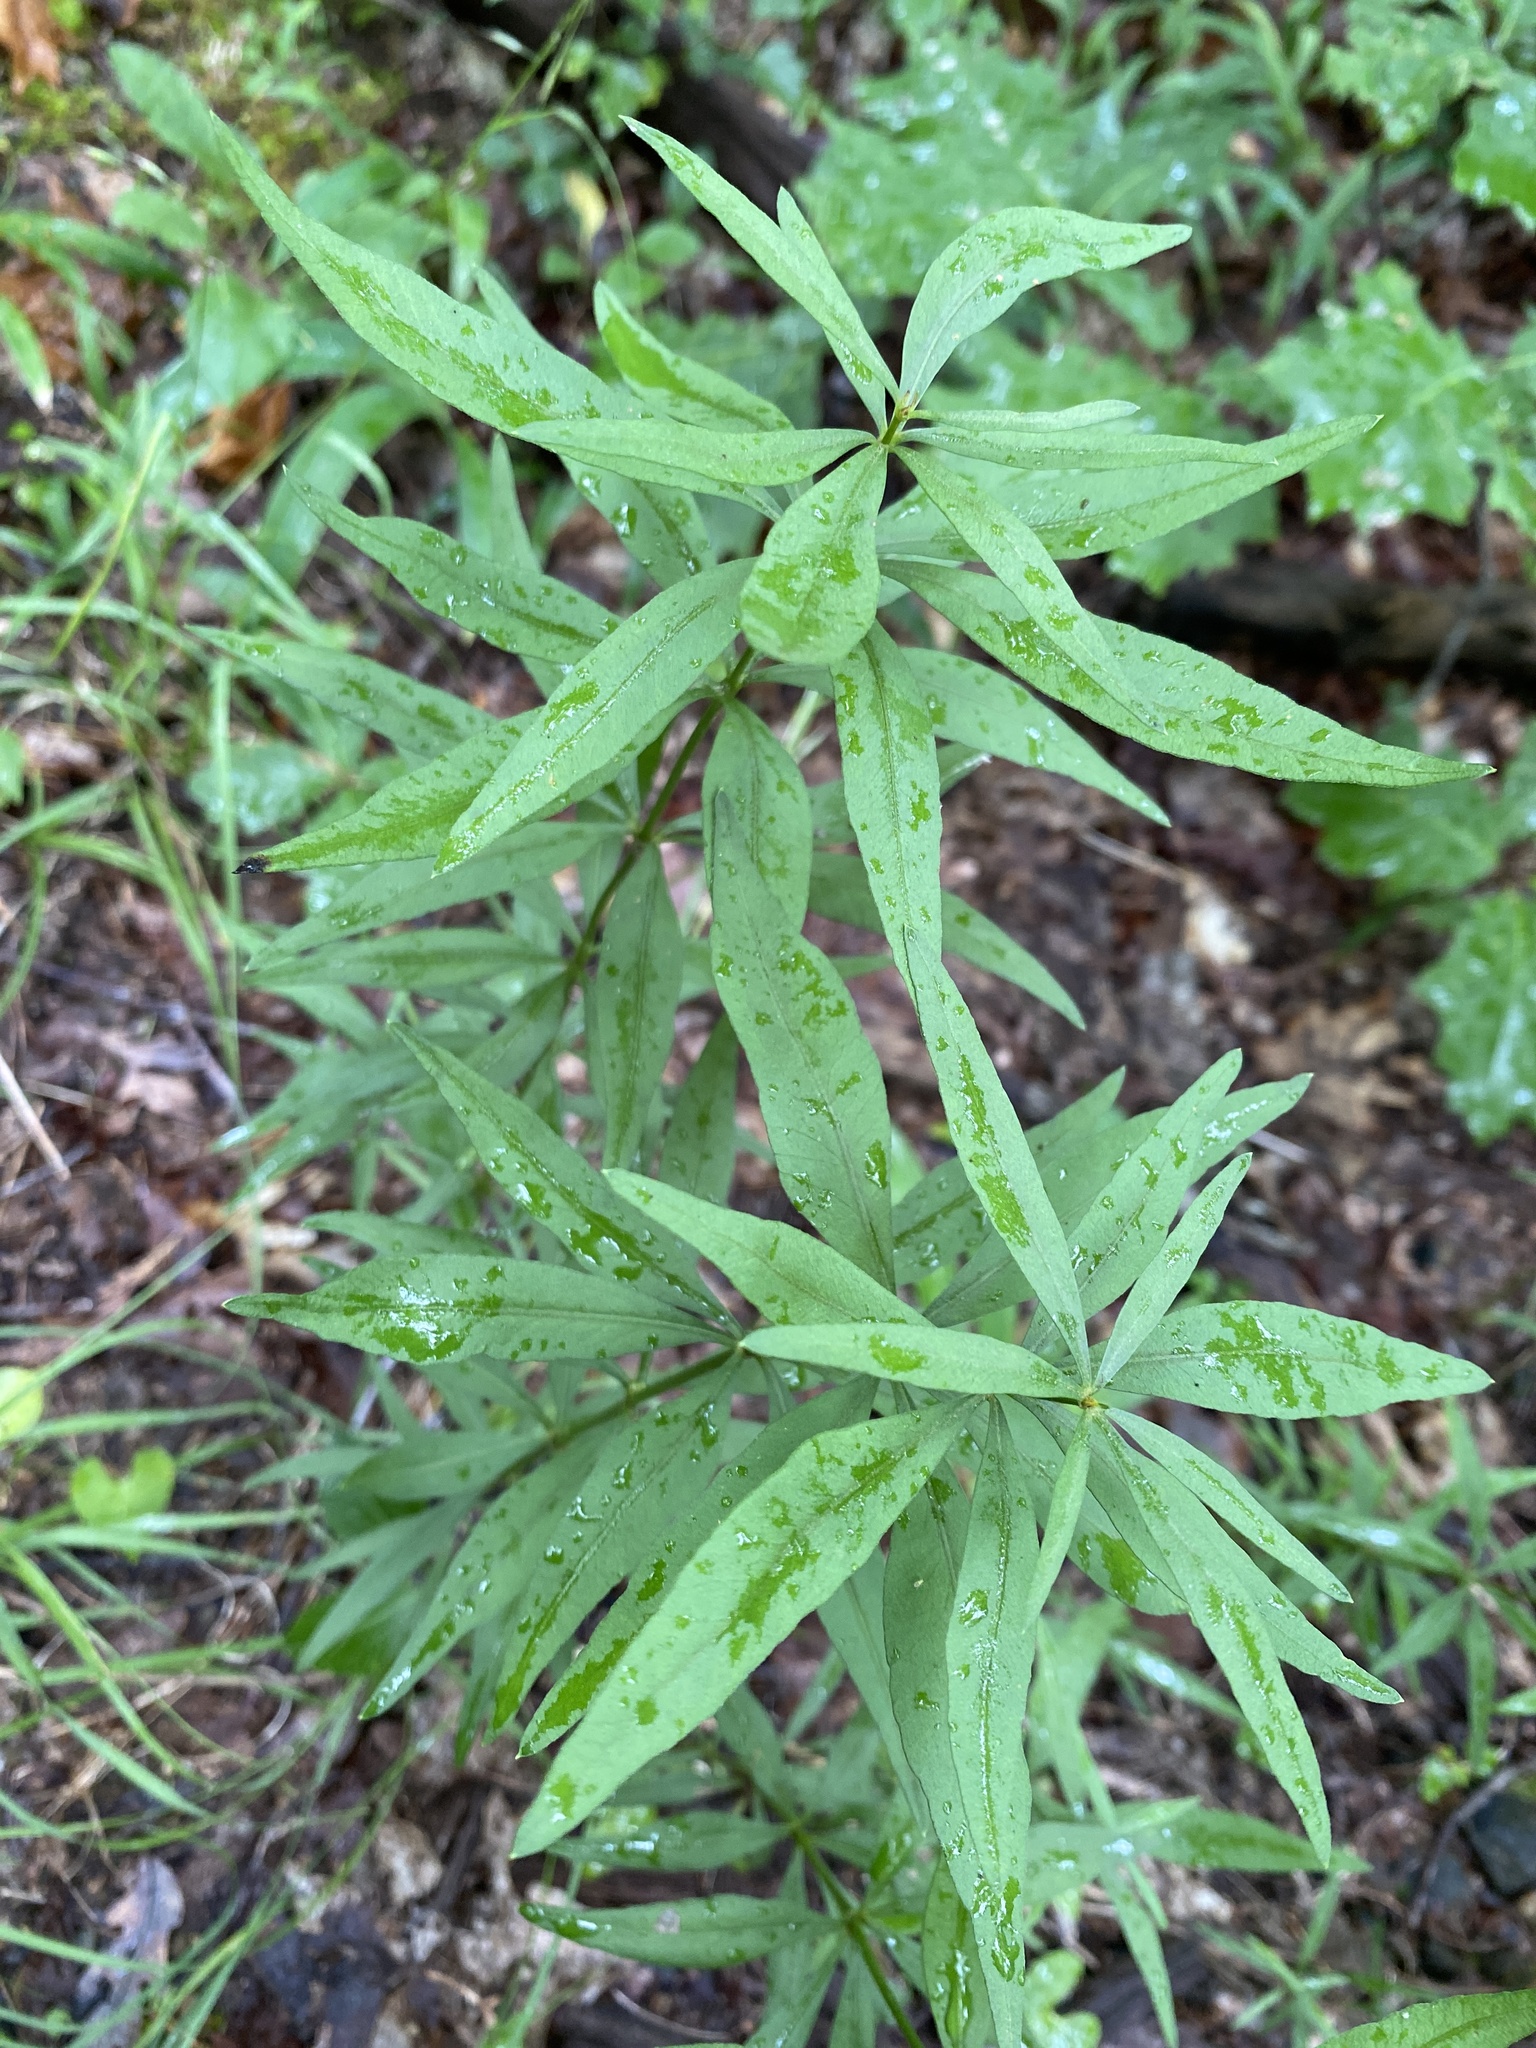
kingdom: Plantae
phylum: Tracheophyta
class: Magnoliopsida
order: Asterales
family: Asteraceae
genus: Coreopsis
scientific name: Coreopsis major
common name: Forest tickseed
